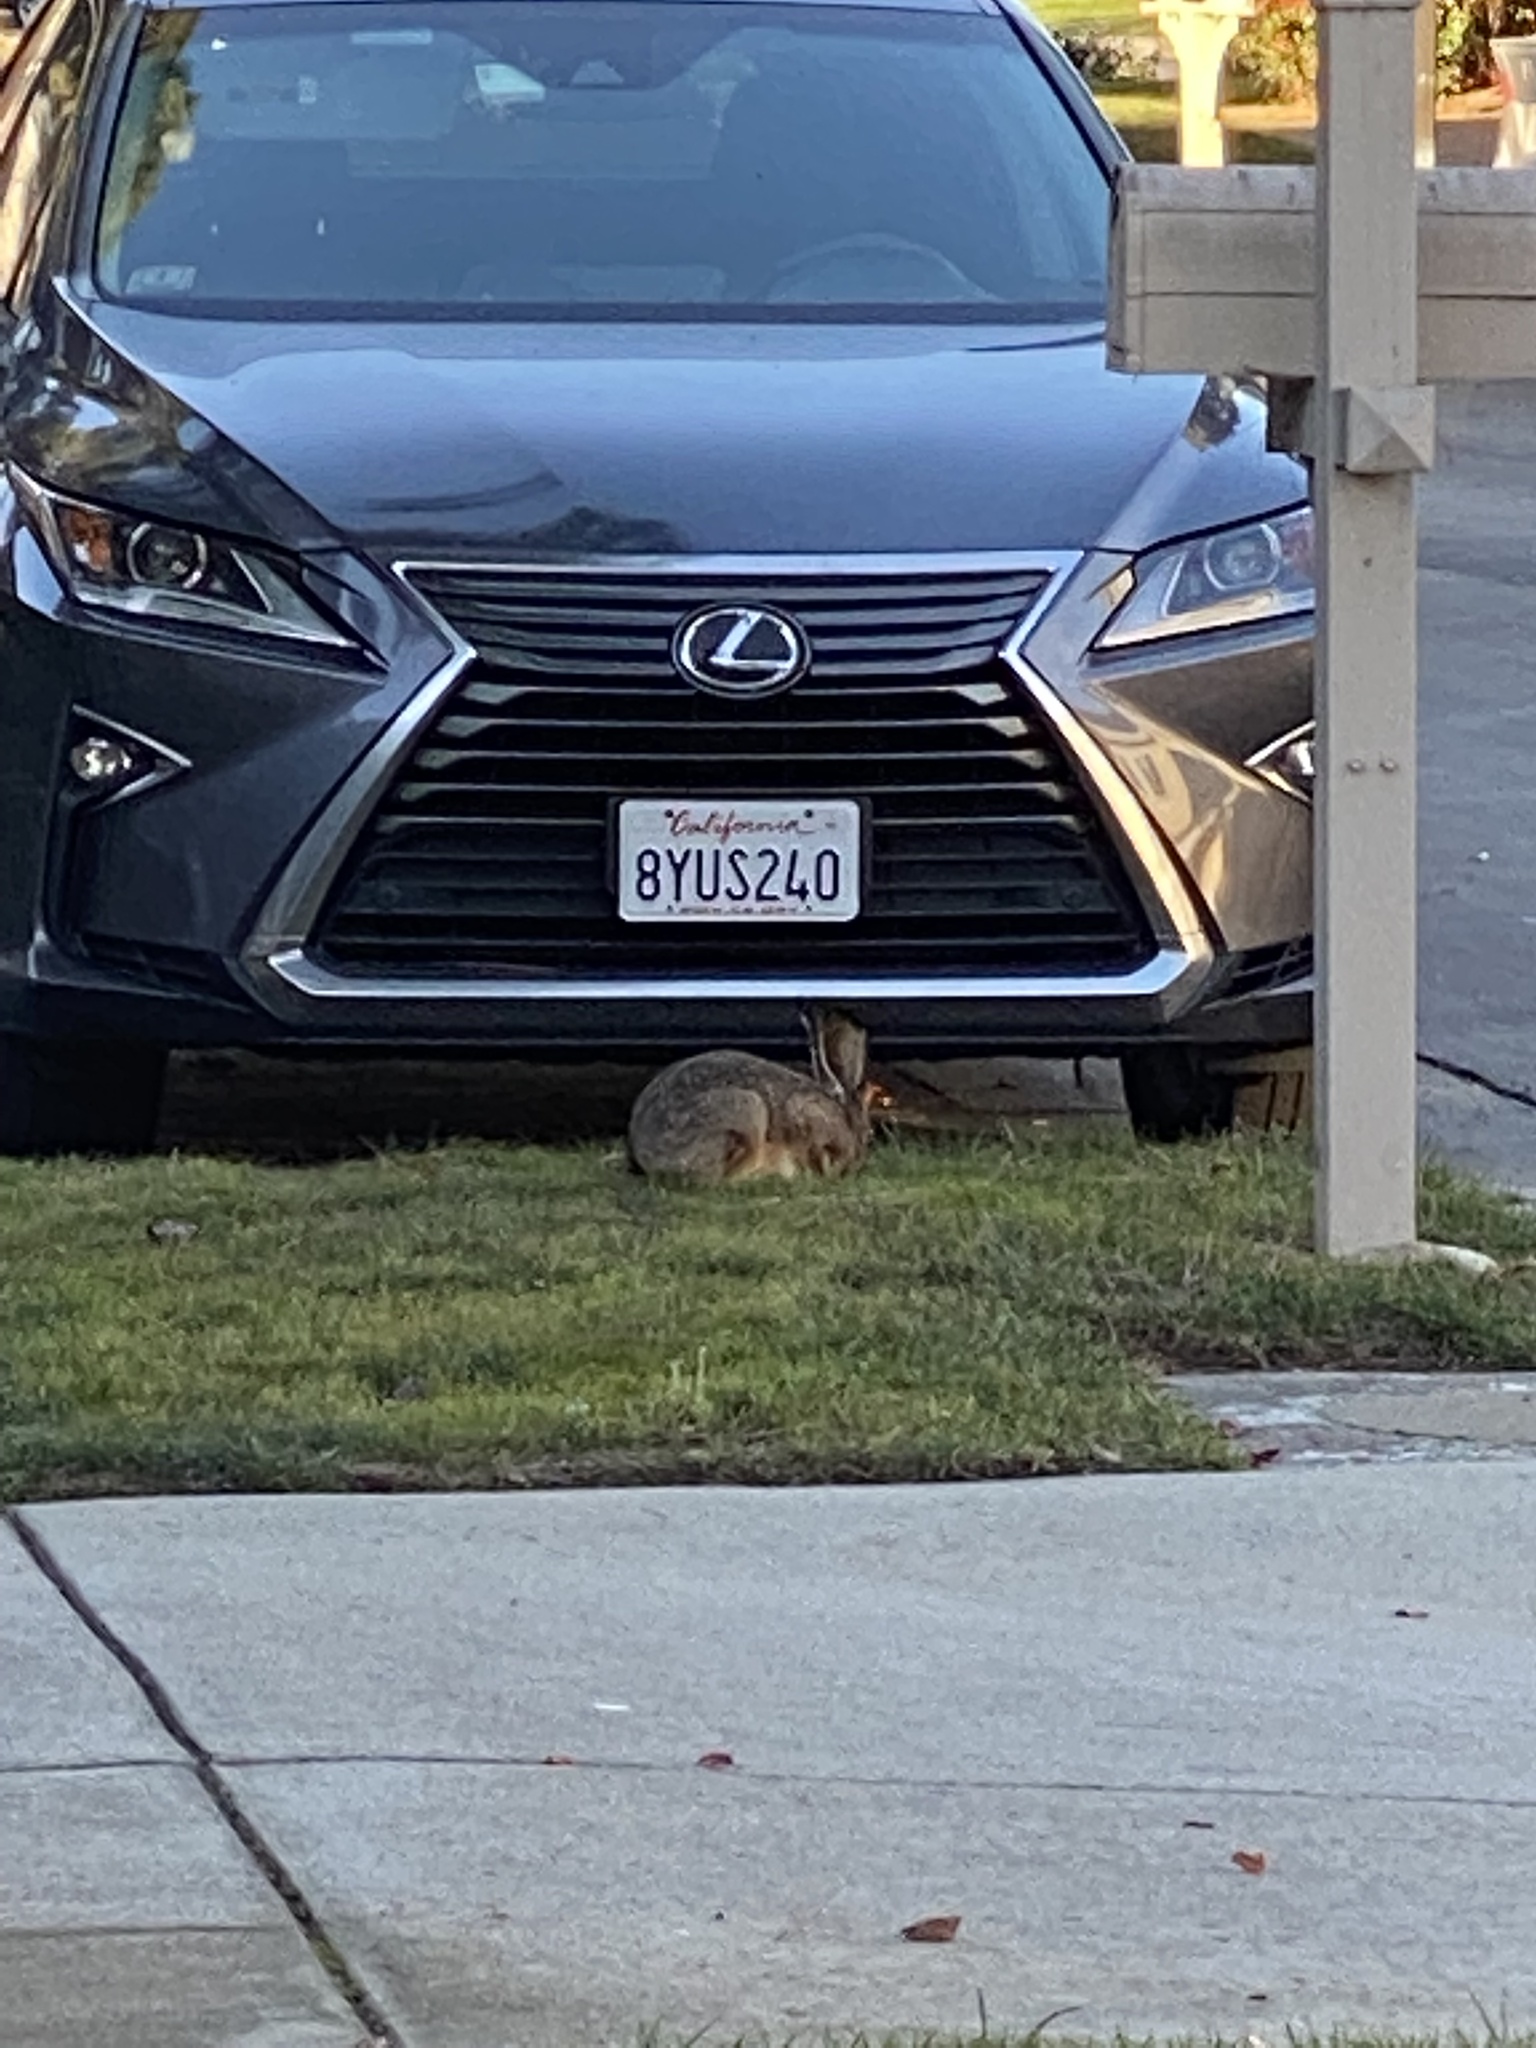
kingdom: Animalia
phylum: Chordata
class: Mammalia
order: Lagomorpha
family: Leporidae
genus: Lepus
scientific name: Lepus californicus
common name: Black-tailed jackrabbit
